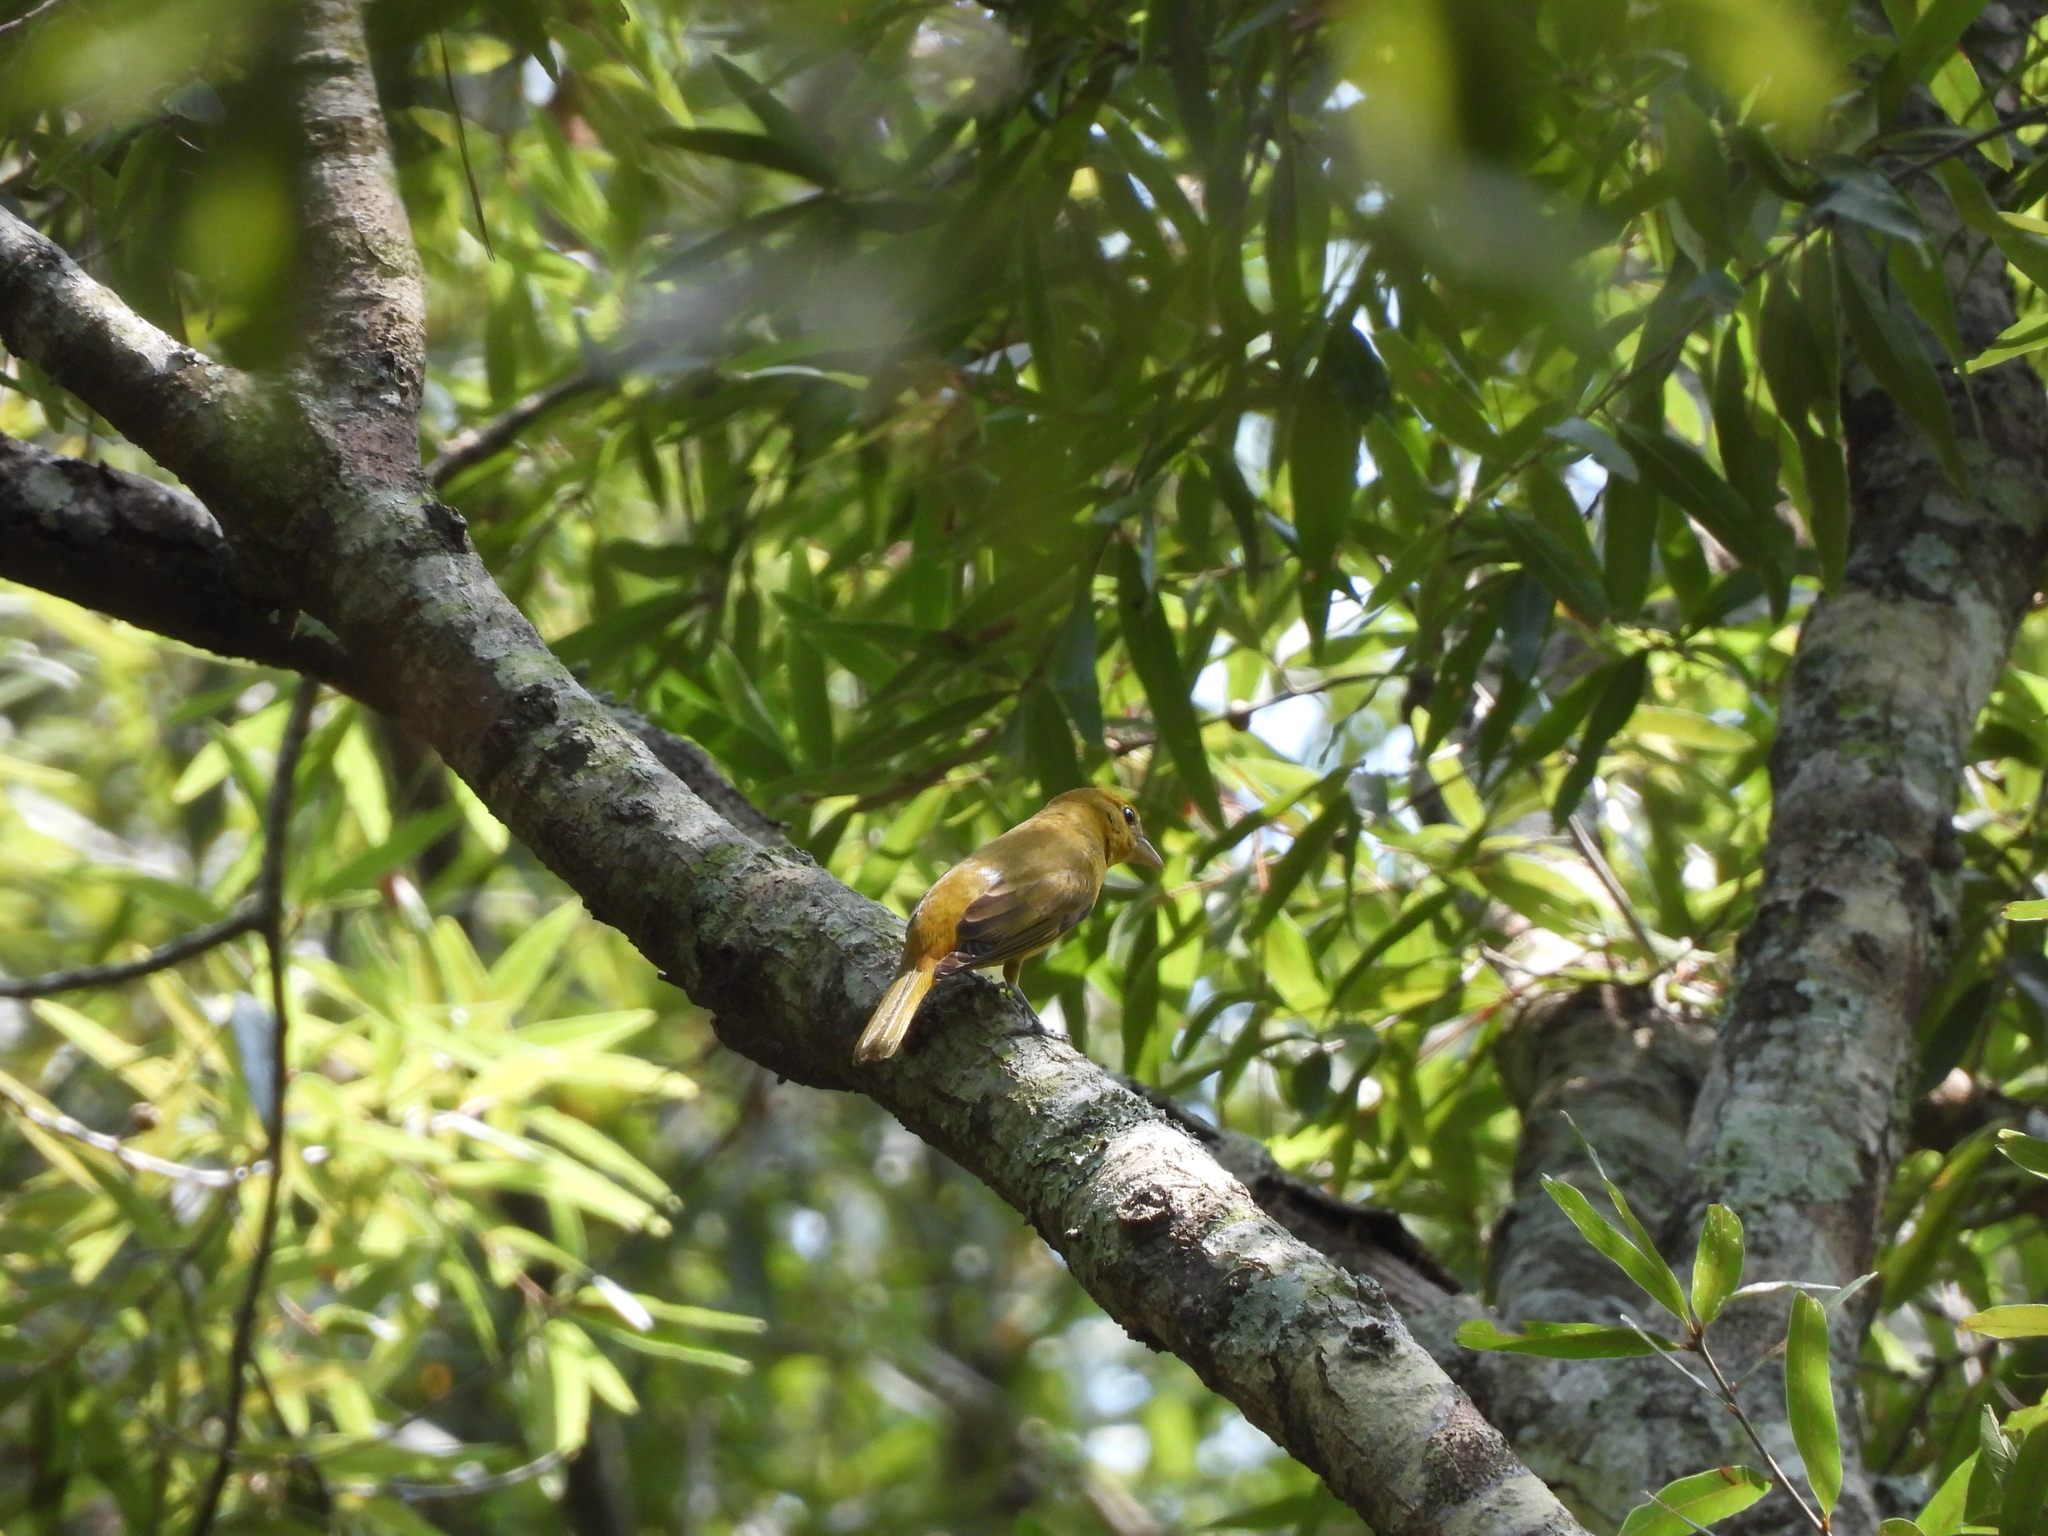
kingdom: Animalia
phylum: Chordata
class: Aves
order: Passeriformes
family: Cardinalidae
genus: Piranga
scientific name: Piranga rubra
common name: Summer tanager
